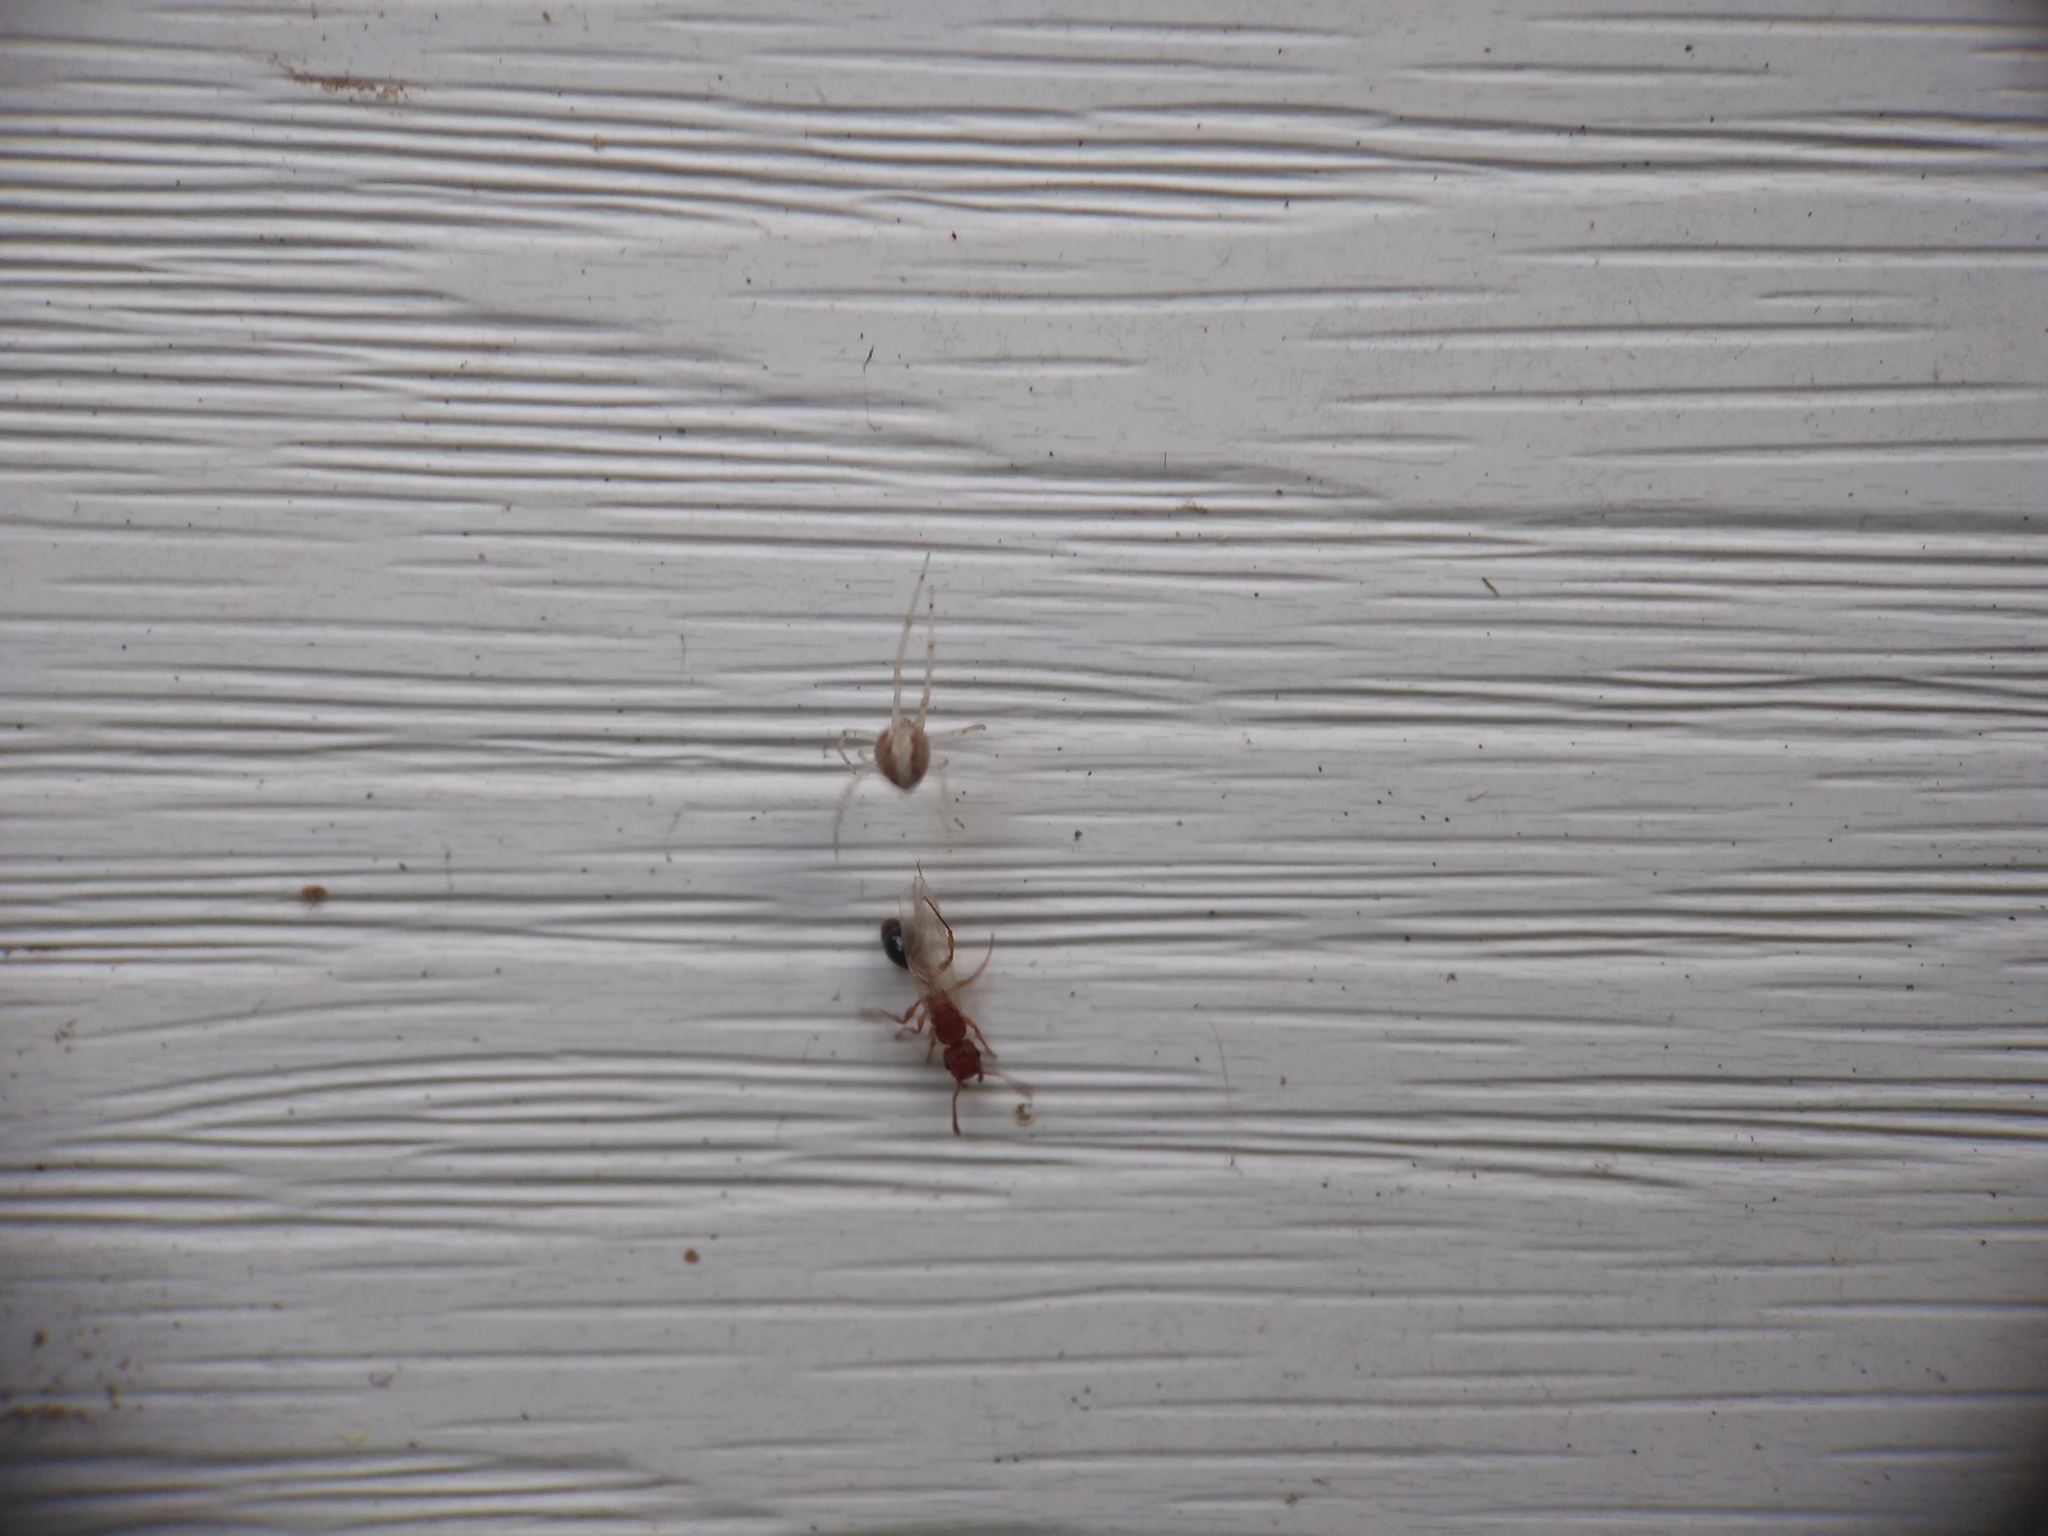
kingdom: Animalia
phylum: Arthropoda
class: Insecta
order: Hymenoptera
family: Formicidae
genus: Tetramorium
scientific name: Tetramorium bicarinatum
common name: Guinea ant
